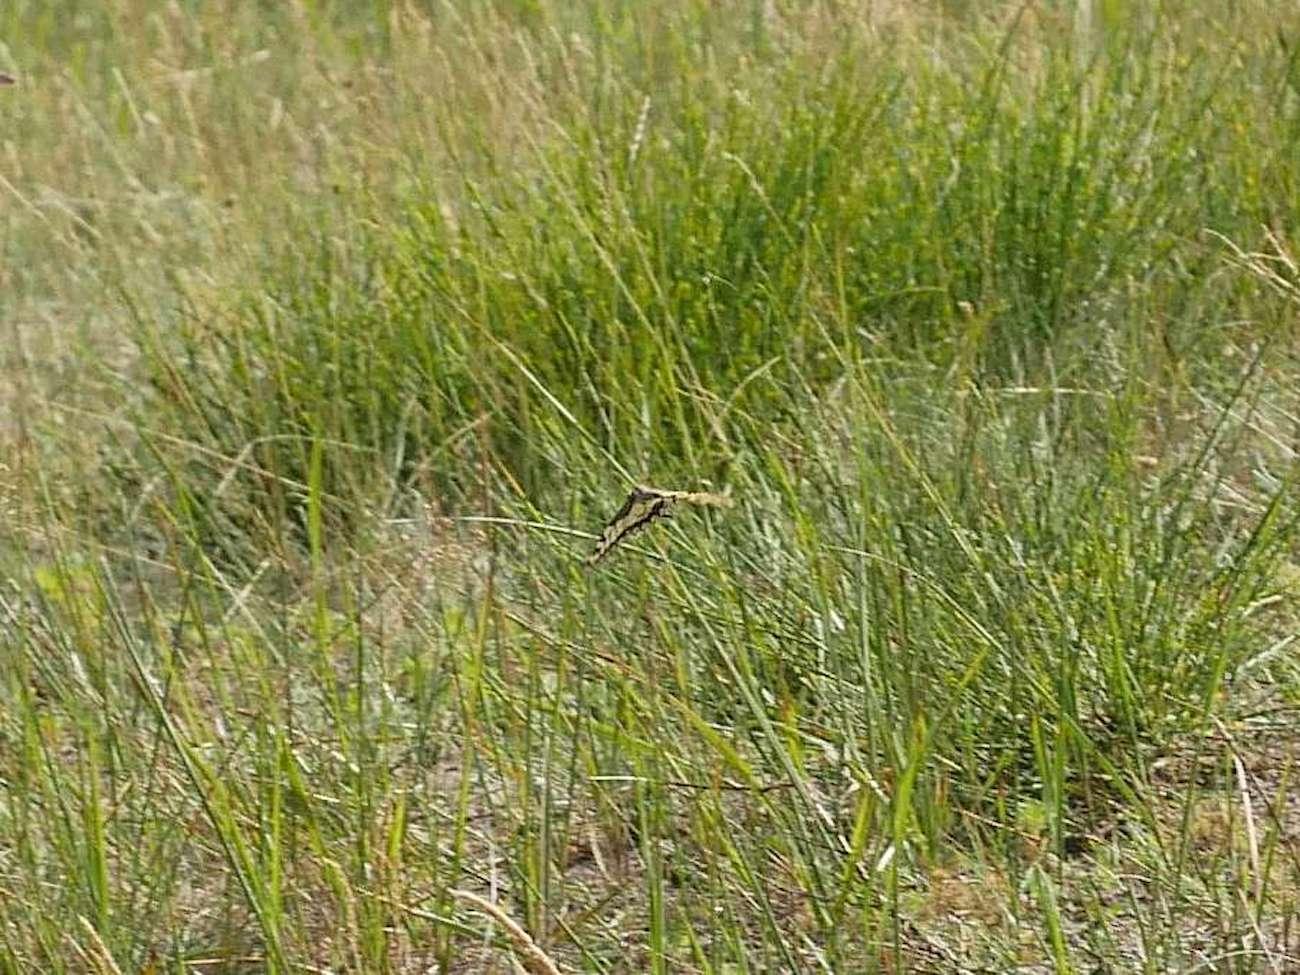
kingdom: Animalia
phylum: Arthropoda
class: Insecta
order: Lepidoptera
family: Papilionidae
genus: Papilio
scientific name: Papilio machaon
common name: Swallowtail
